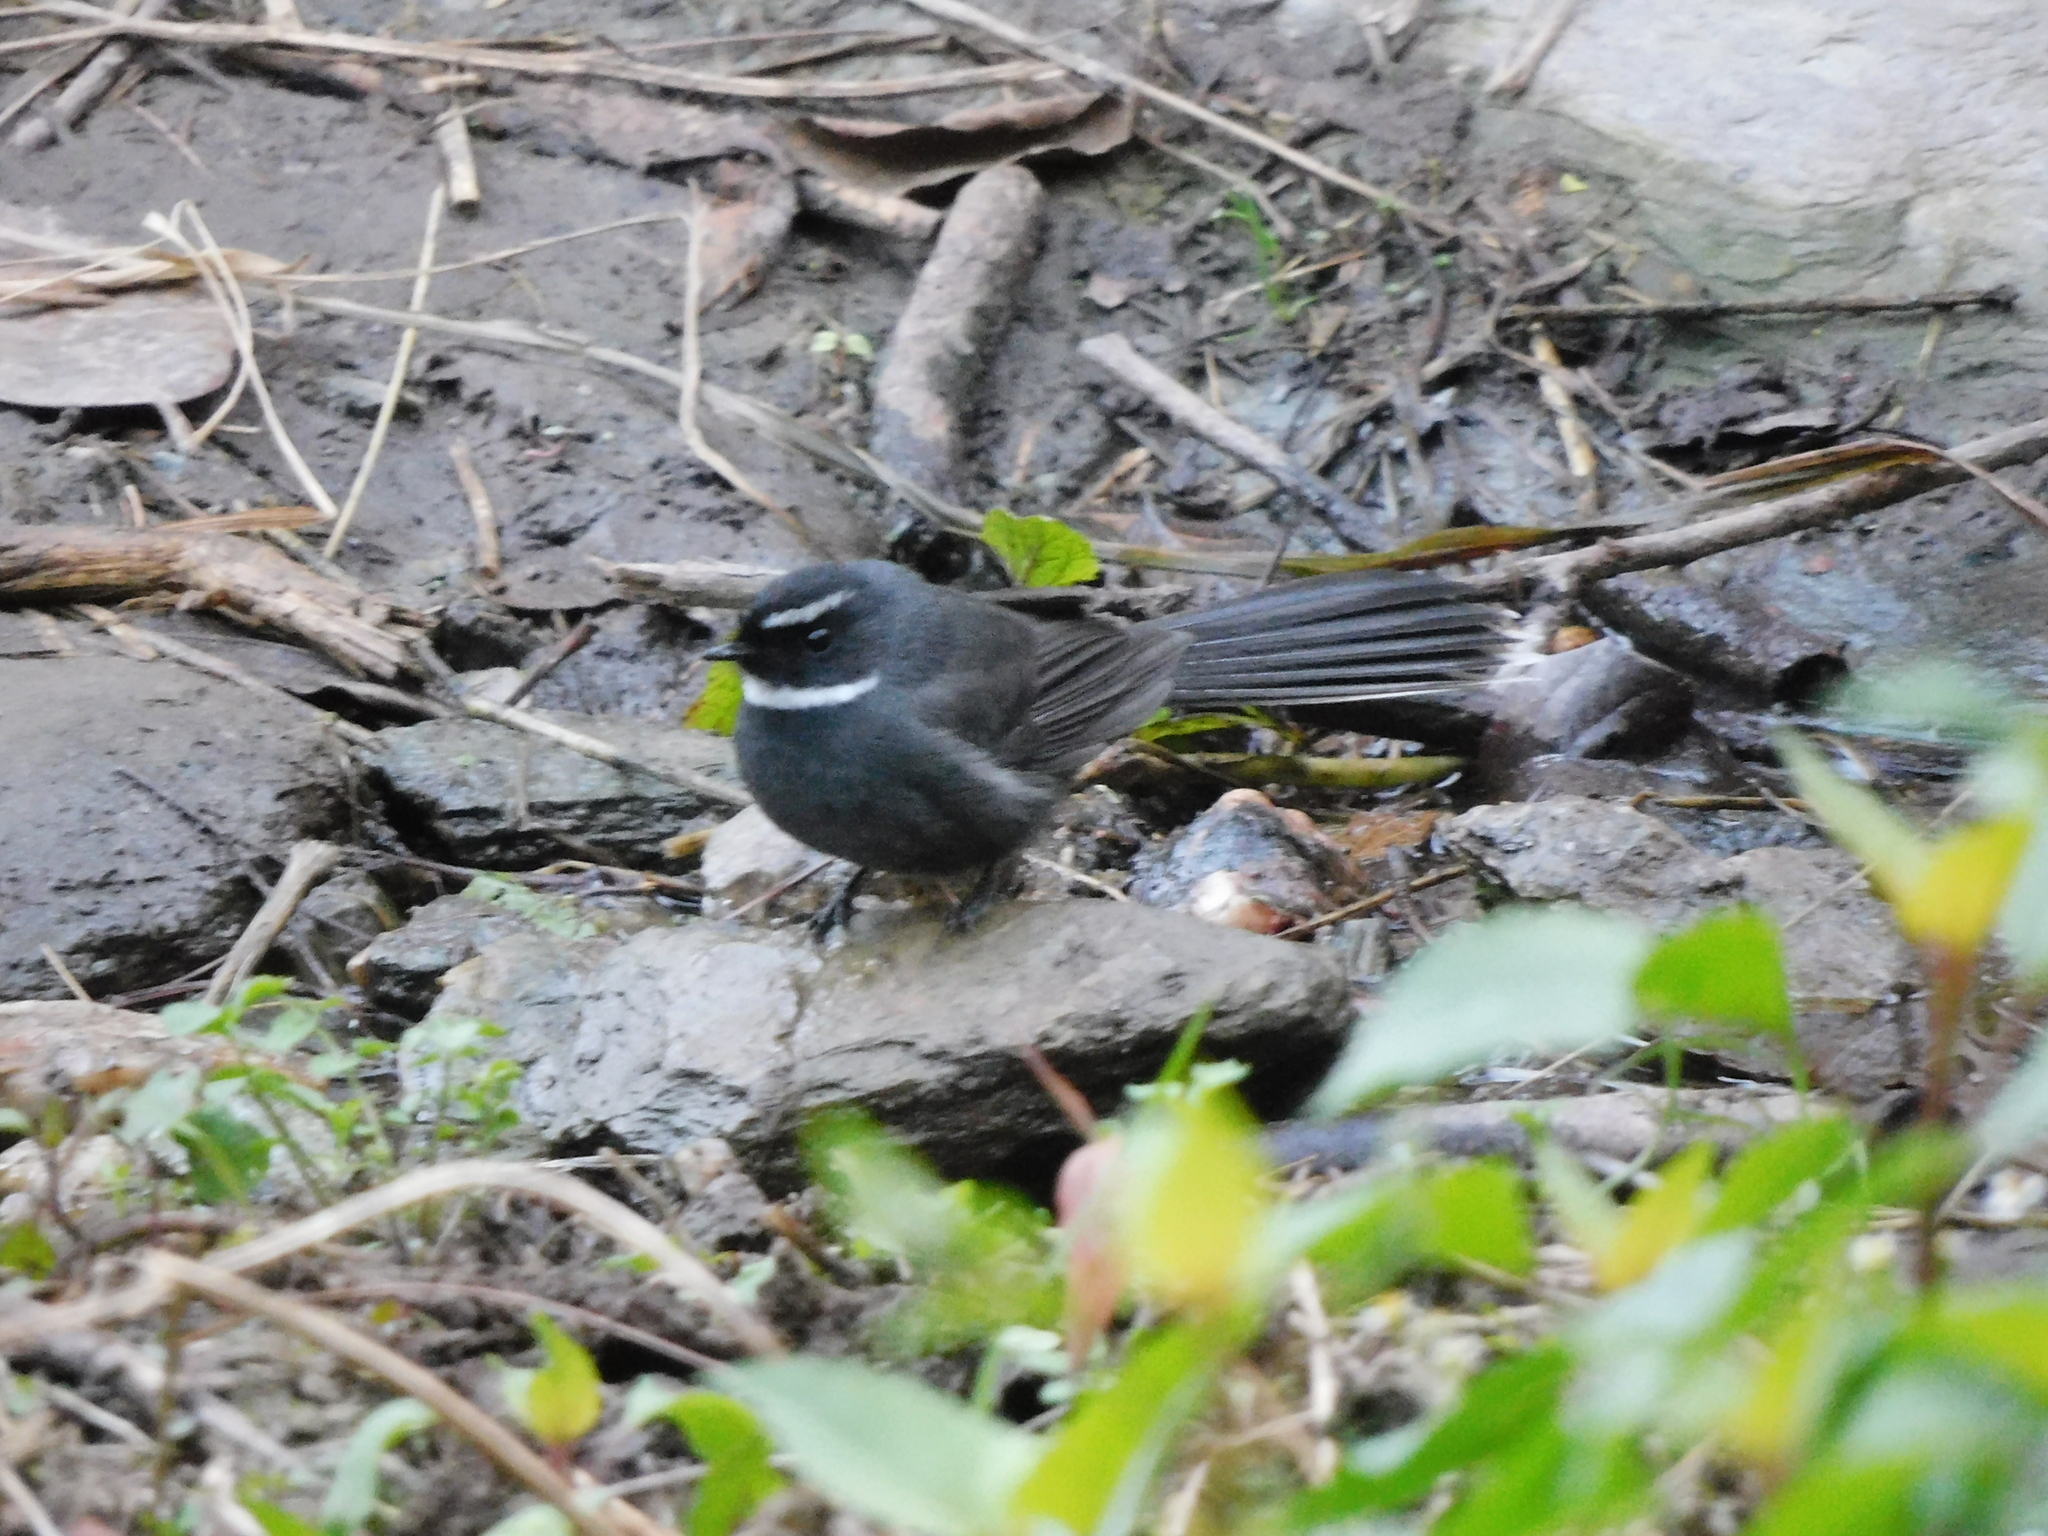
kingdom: Animalia
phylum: Chordata
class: Aves
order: Passeriformes
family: Rhipiduridae
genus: Rhipidura
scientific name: Rhipidura albicollis
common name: White-throated fantail
